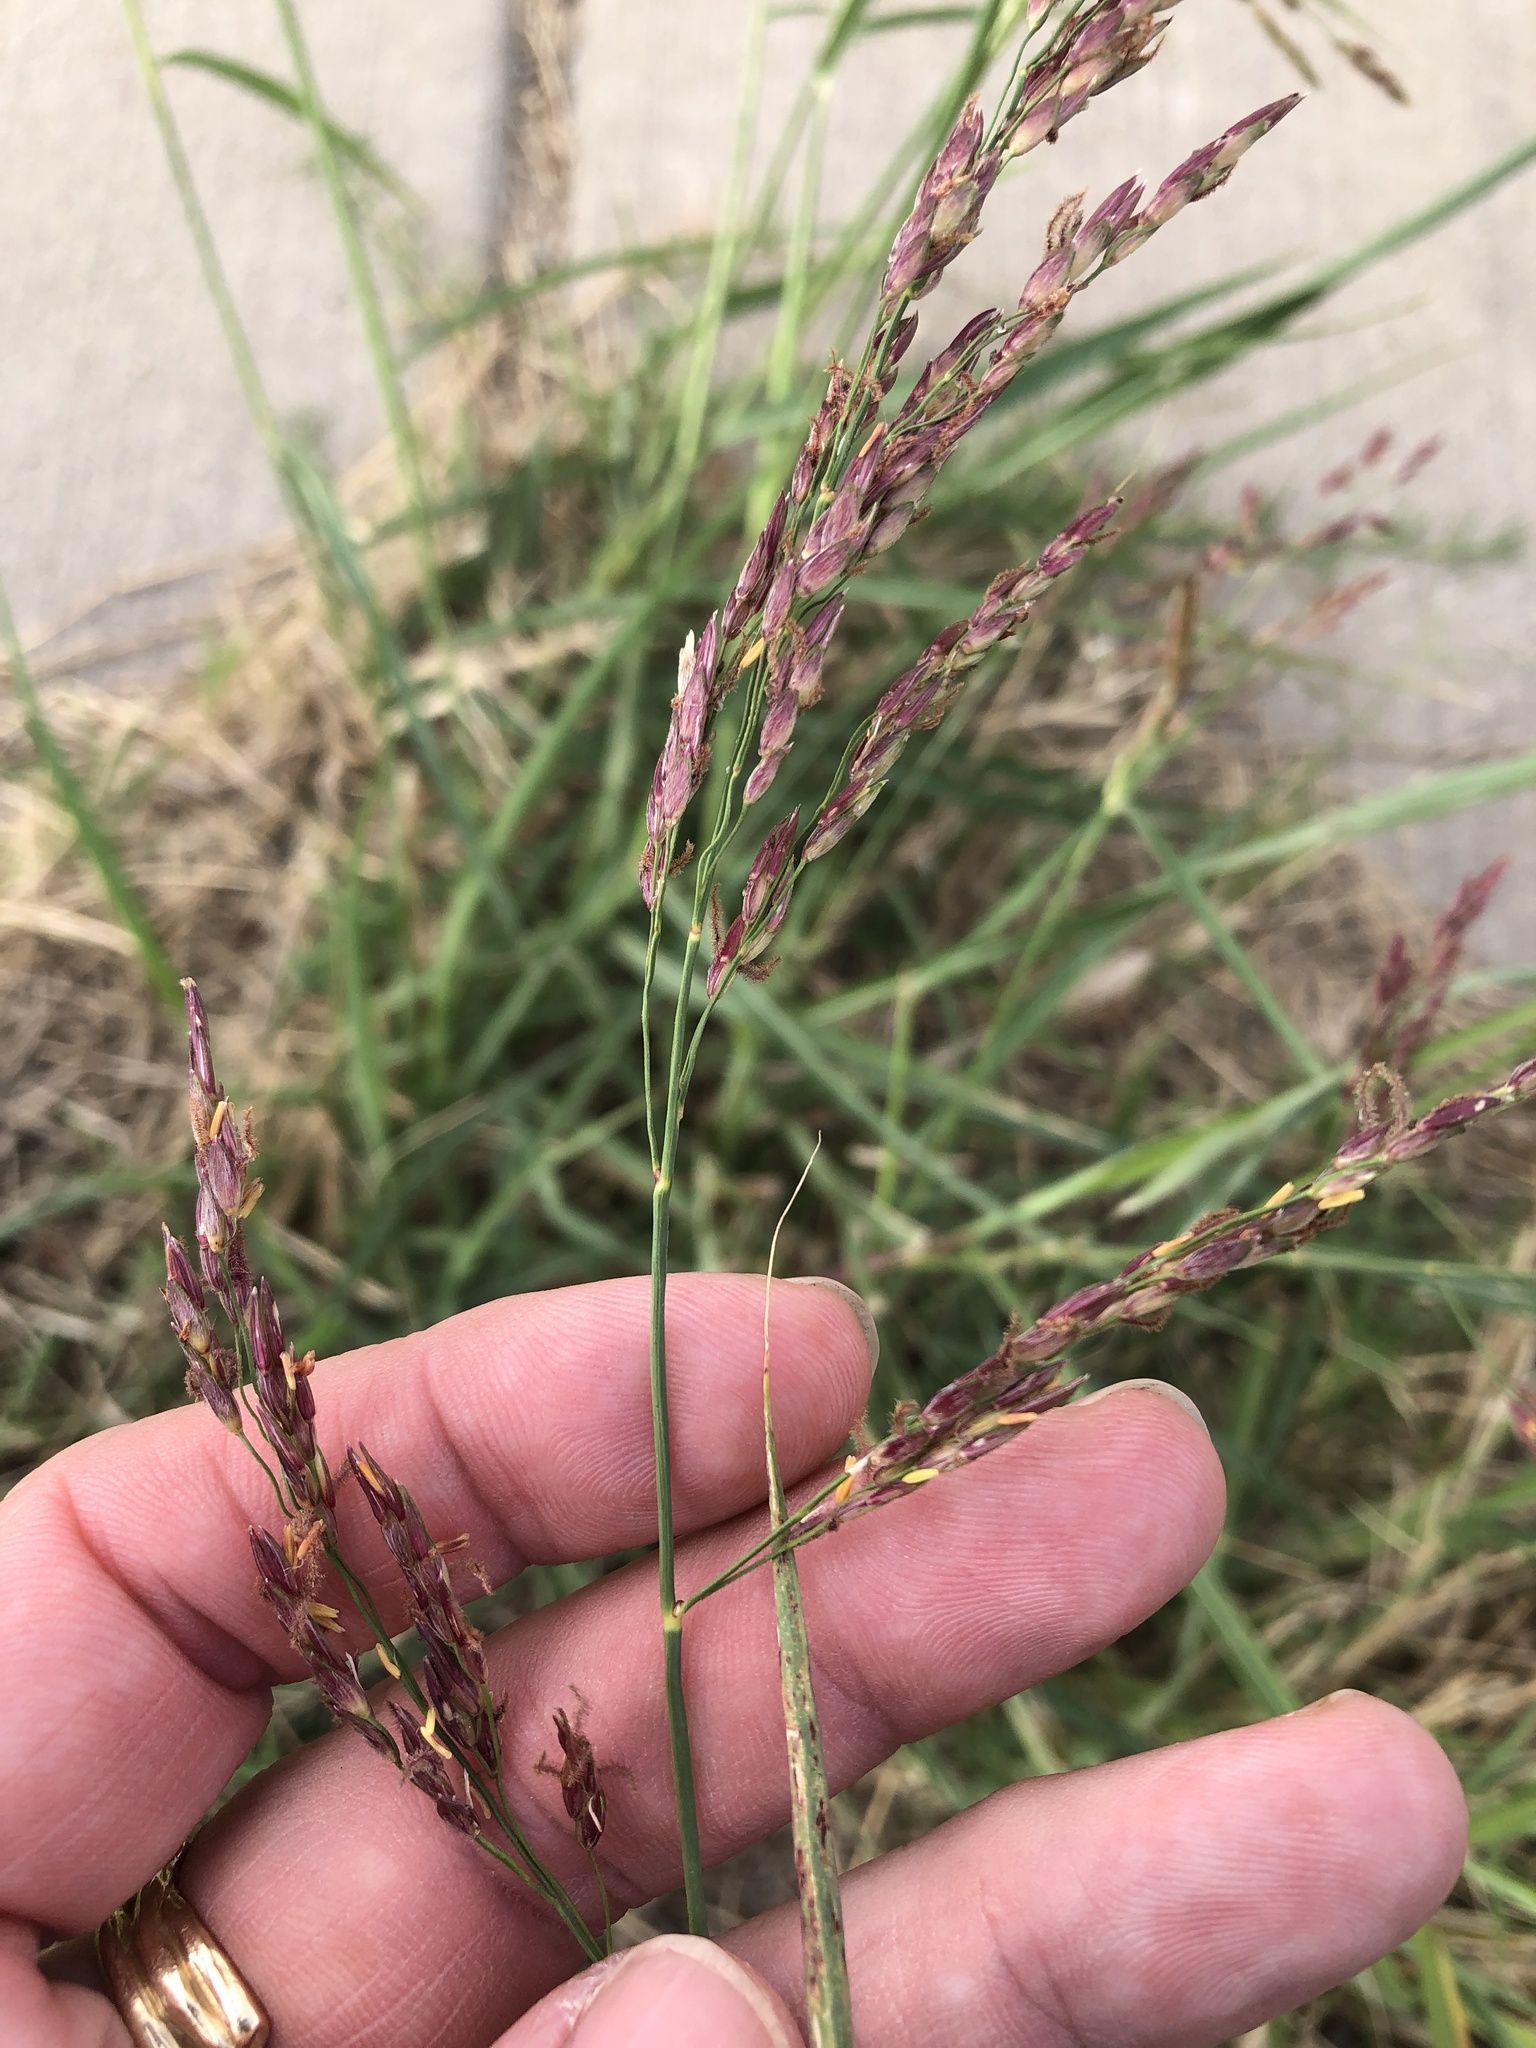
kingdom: Plantae
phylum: Tracheophyta
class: Liliopsida
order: Poales
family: Poaceae
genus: Sorghum
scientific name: Sorghum halepense
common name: Johnson-grass
